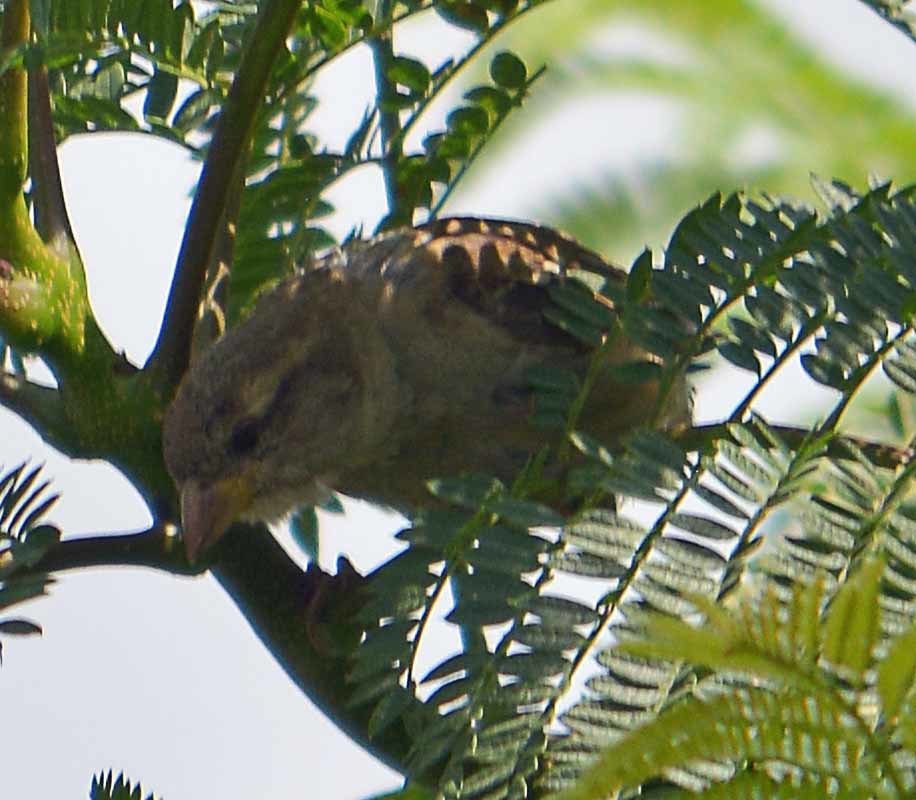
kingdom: Animalia
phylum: Chordata
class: Aves
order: Passeriformes
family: Passeridae
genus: Passer
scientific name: Passer domesticus
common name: House sparrow
